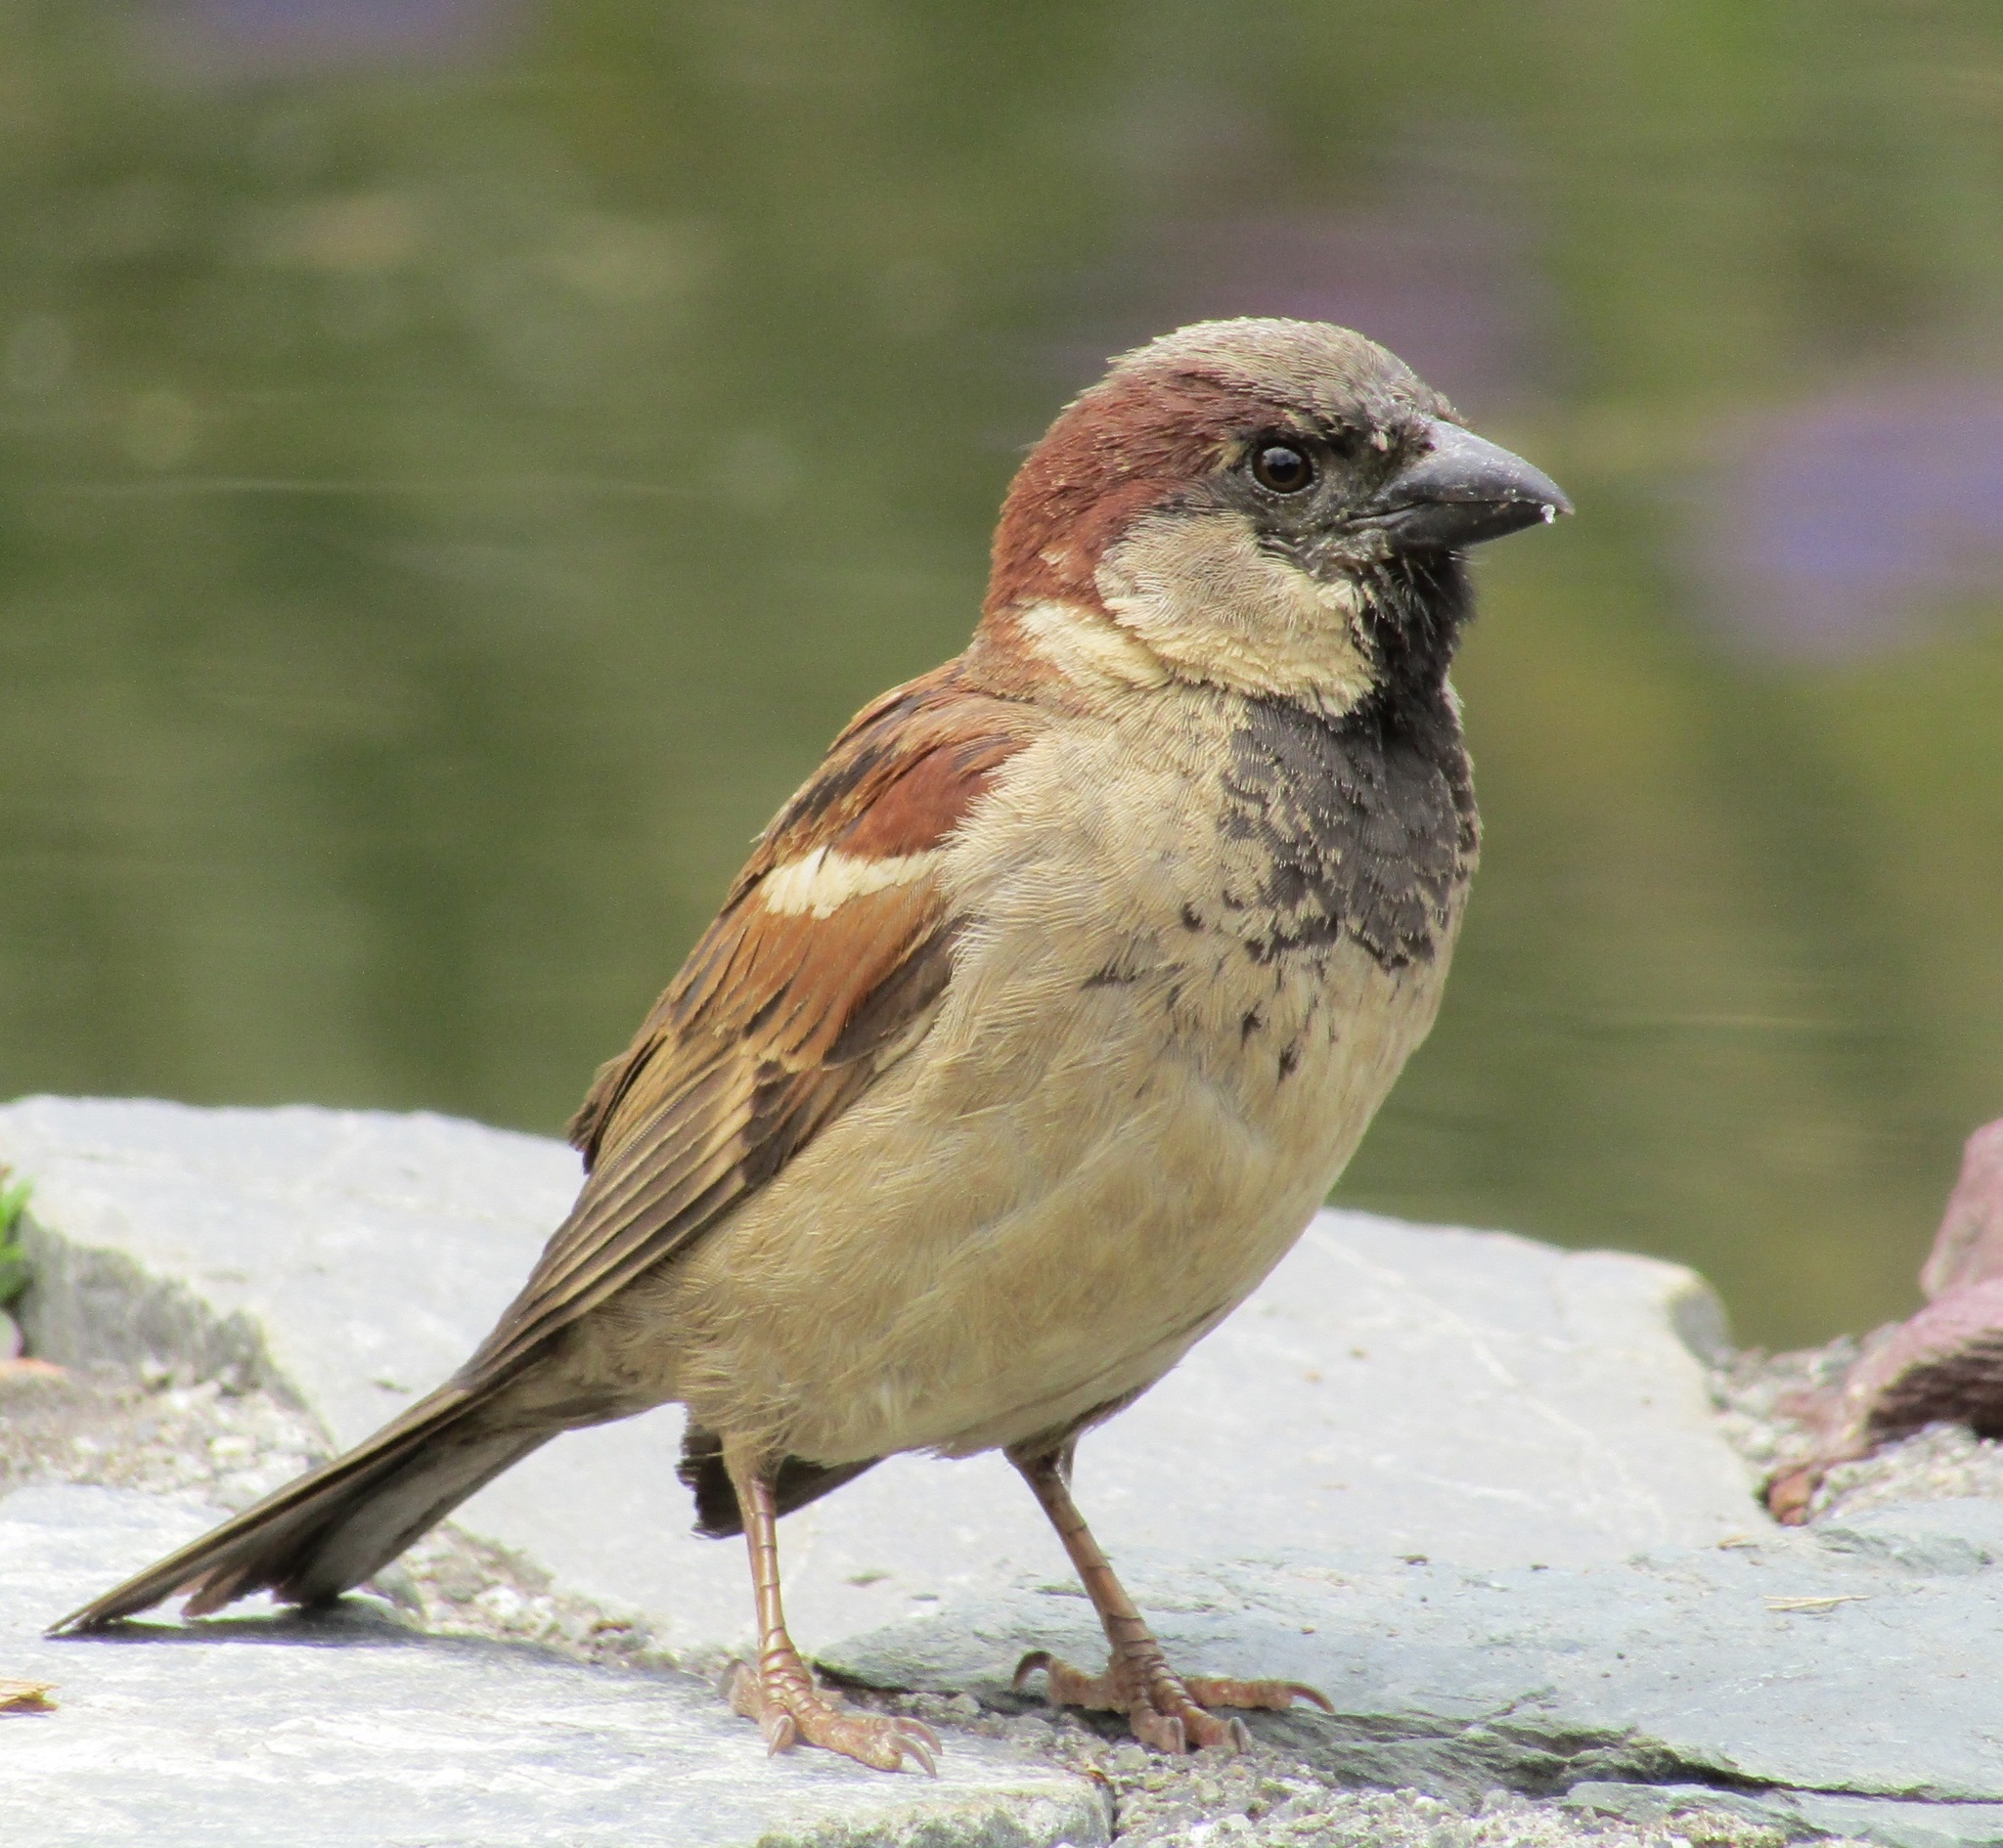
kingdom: Animalia
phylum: Chordata
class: Aves
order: Passeriformes
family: Passeridae
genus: Passer
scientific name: Passer domesticus
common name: House sparrow
